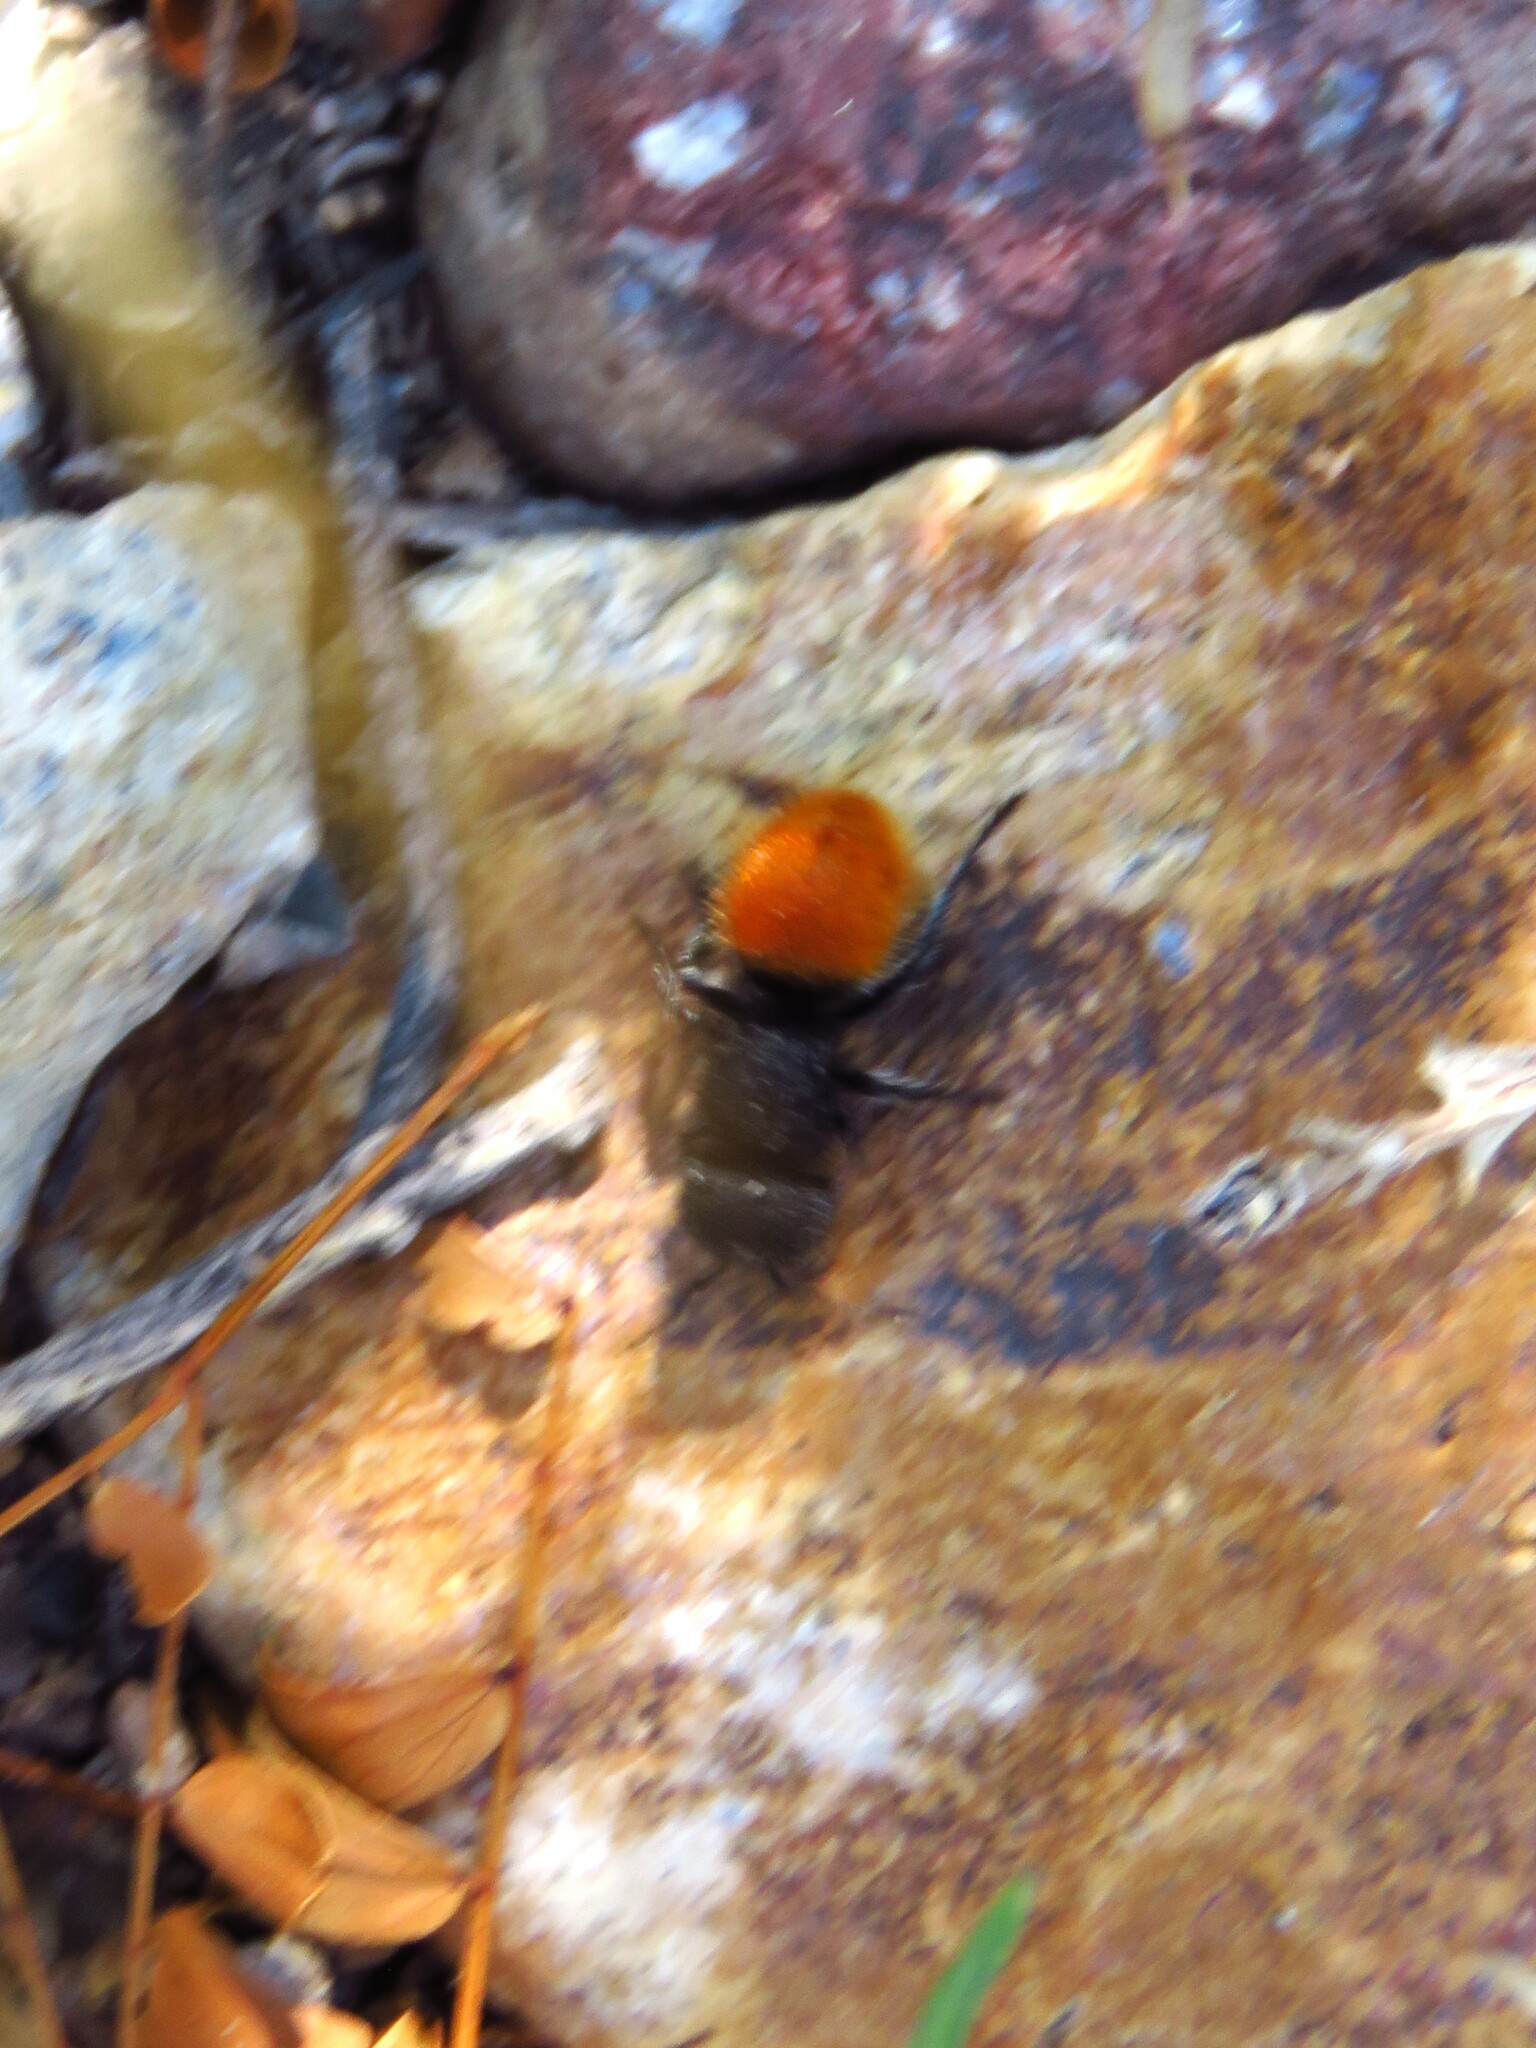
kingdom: Animalia
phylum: Arthropoda
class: Insecta
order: Hymenoptera
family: Mutillidae
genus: Pseudomethoca
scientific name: Pseudomethoca
